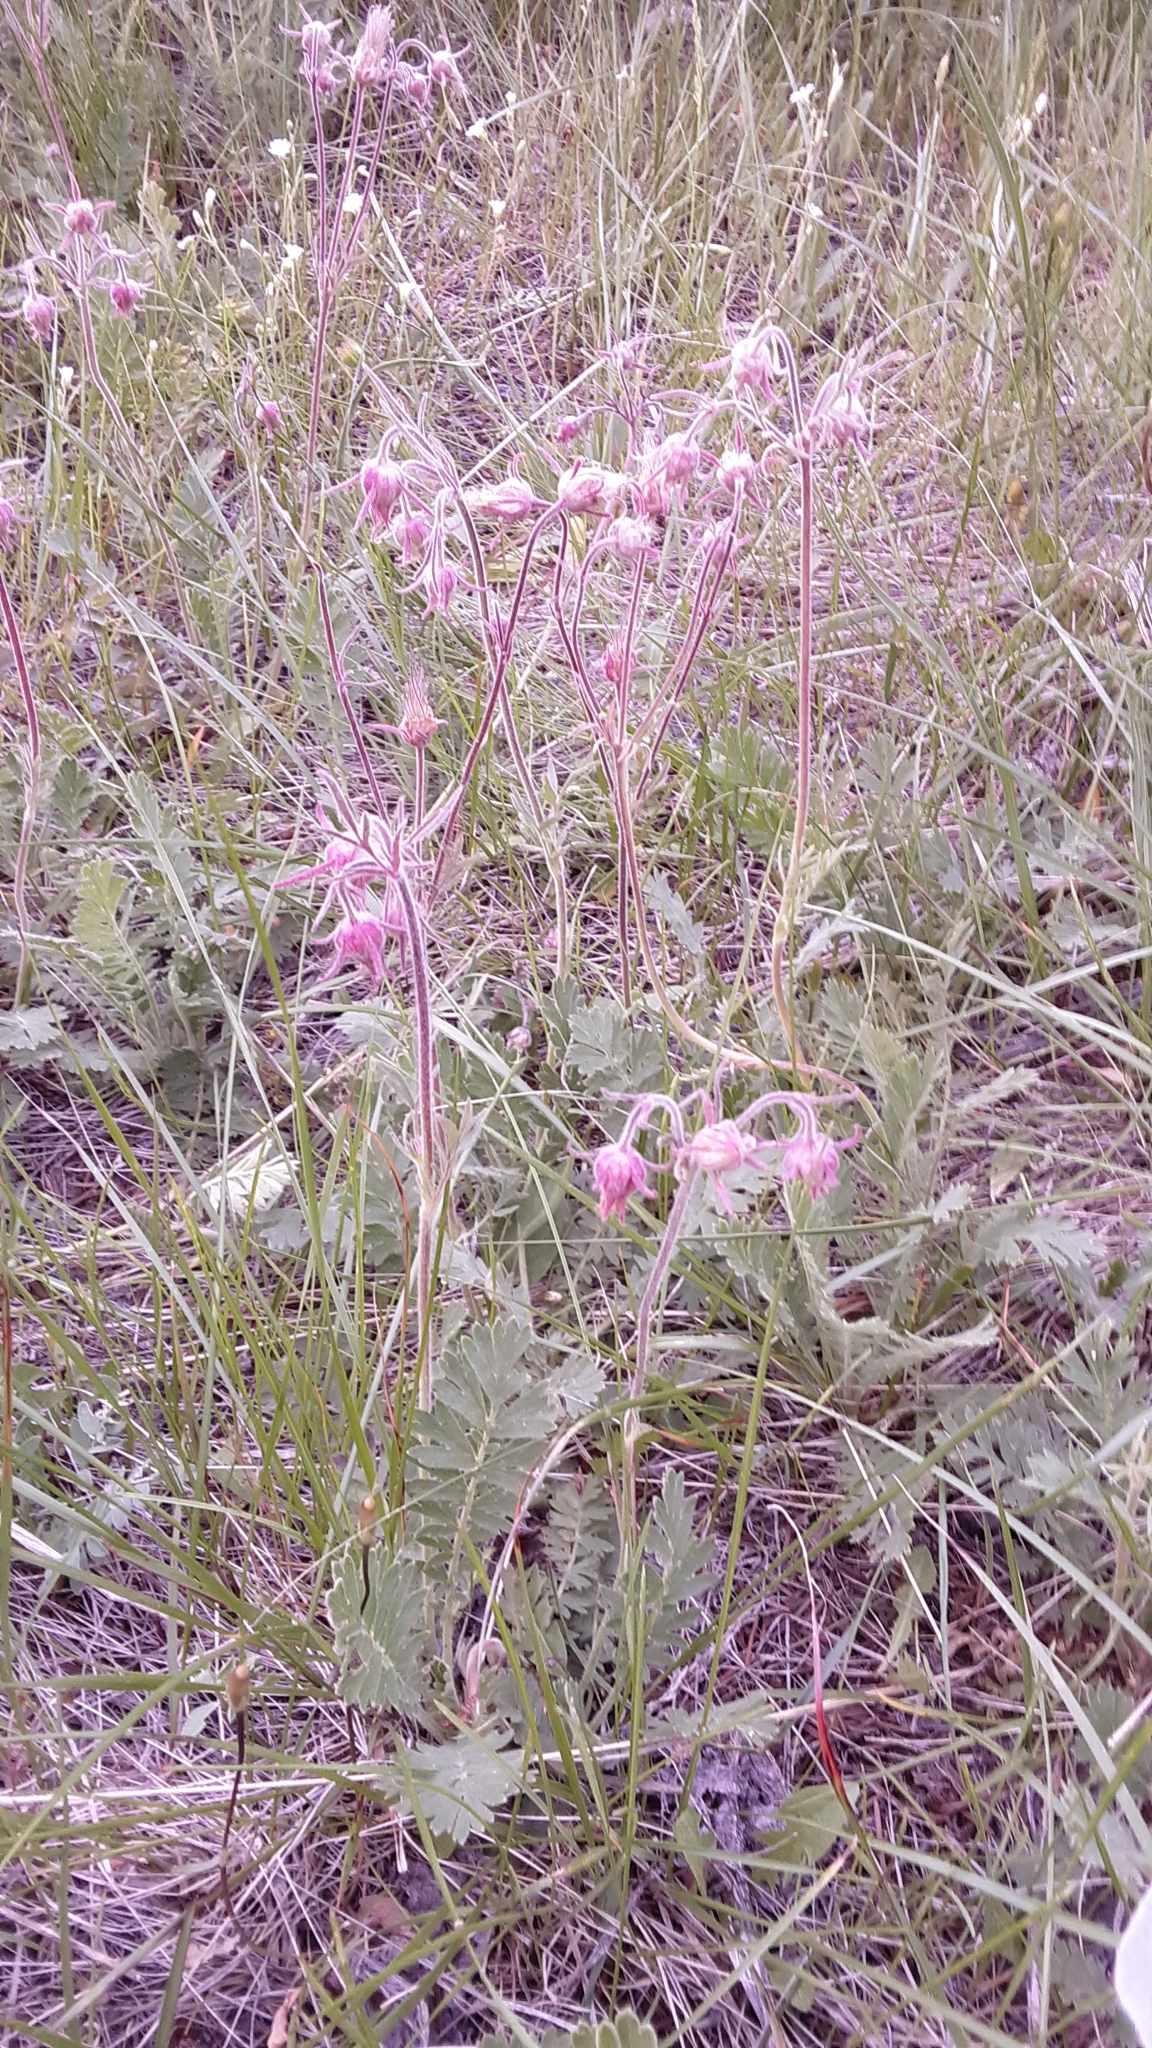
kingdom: Plantae
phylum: Tracheophyta
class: Magnoliopsida
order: Rosales
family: Rosaceae
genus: Geum
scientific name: Geum triflorum
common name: Old man's whiskers
